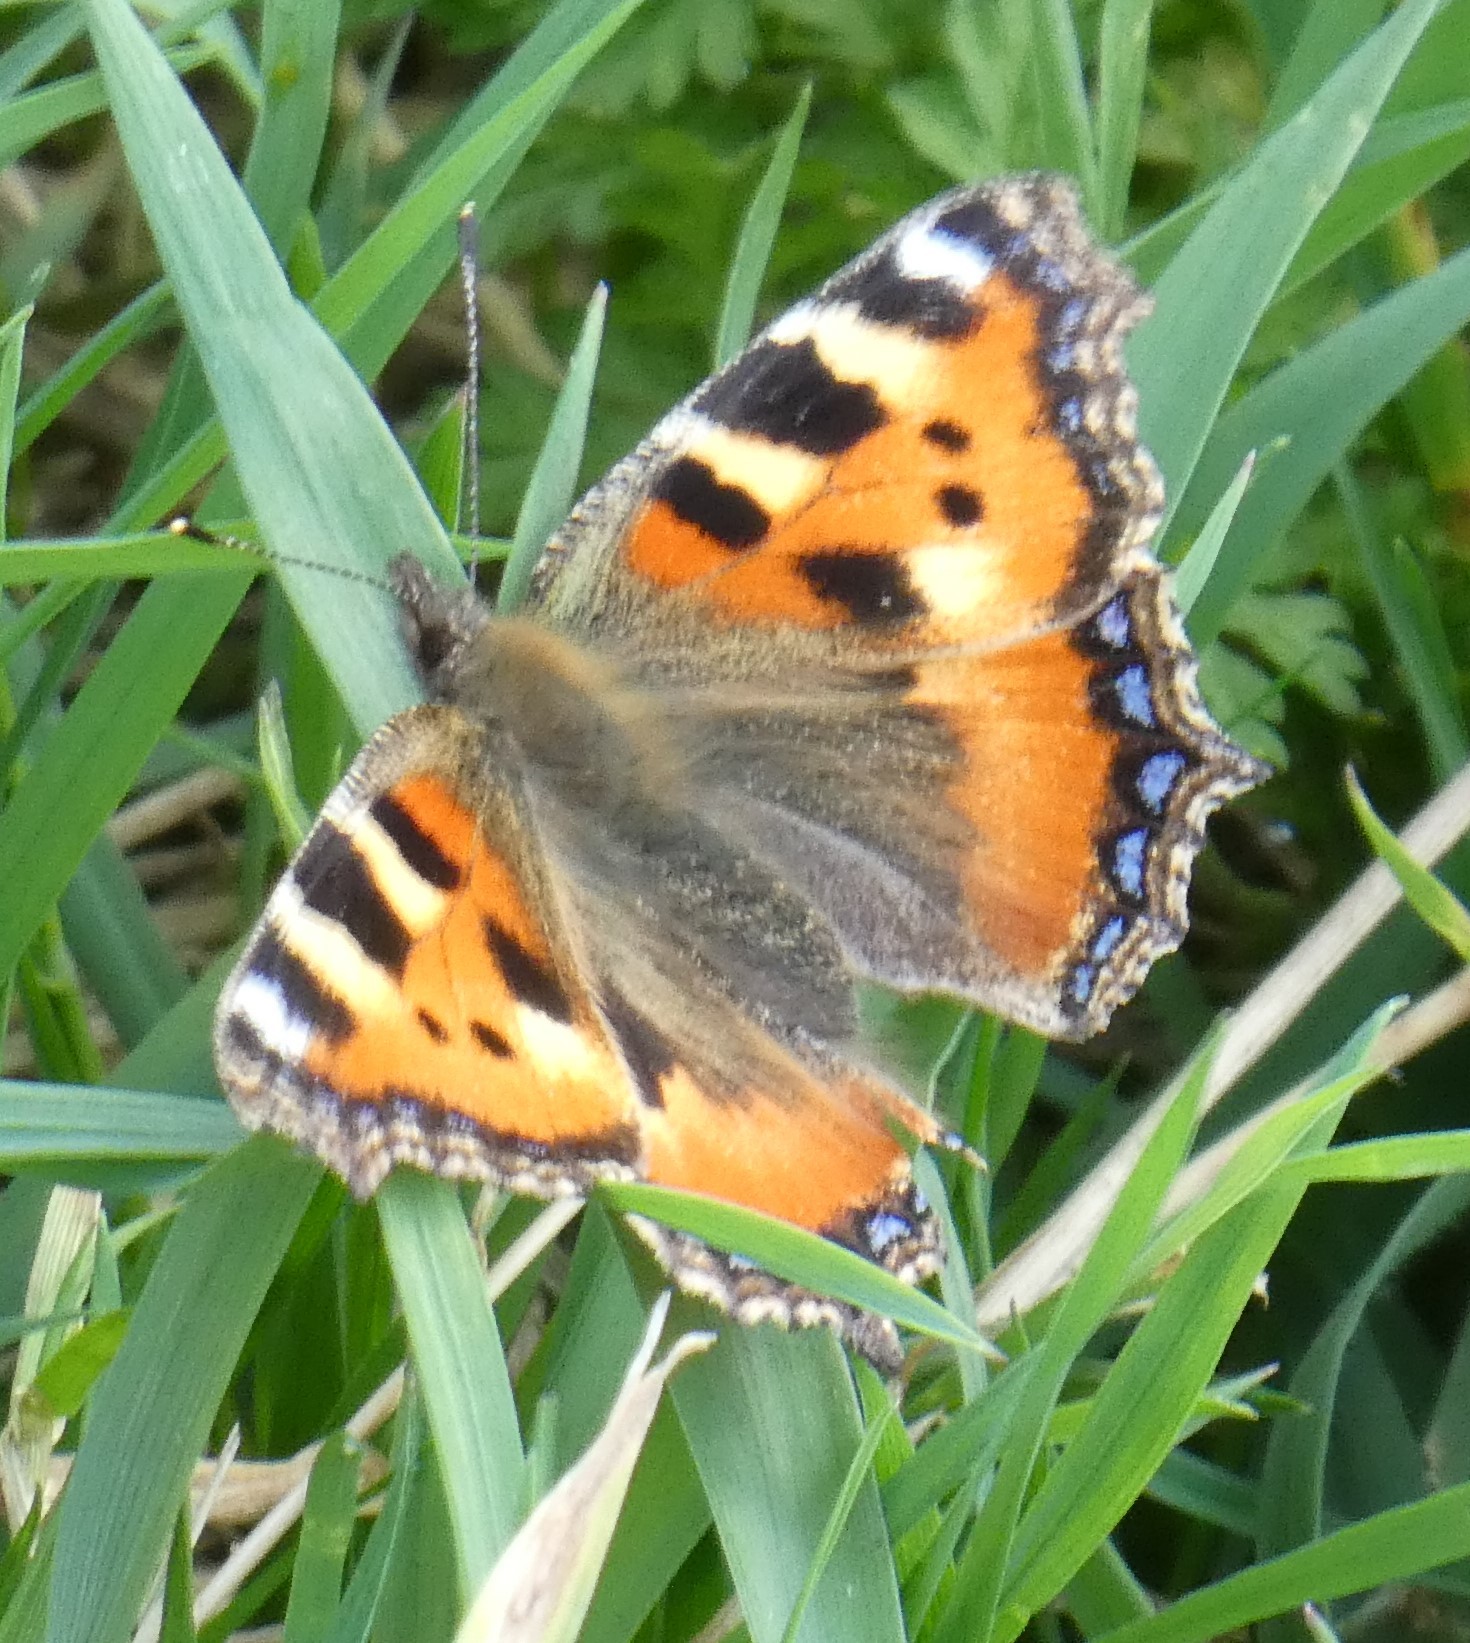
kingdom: Animalia
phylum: Arthropoda
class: Insecta
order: Lepidoptera
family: Nymphalidae
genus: Aglais
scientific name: Aglais urticae
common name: Small tortoiseshell
